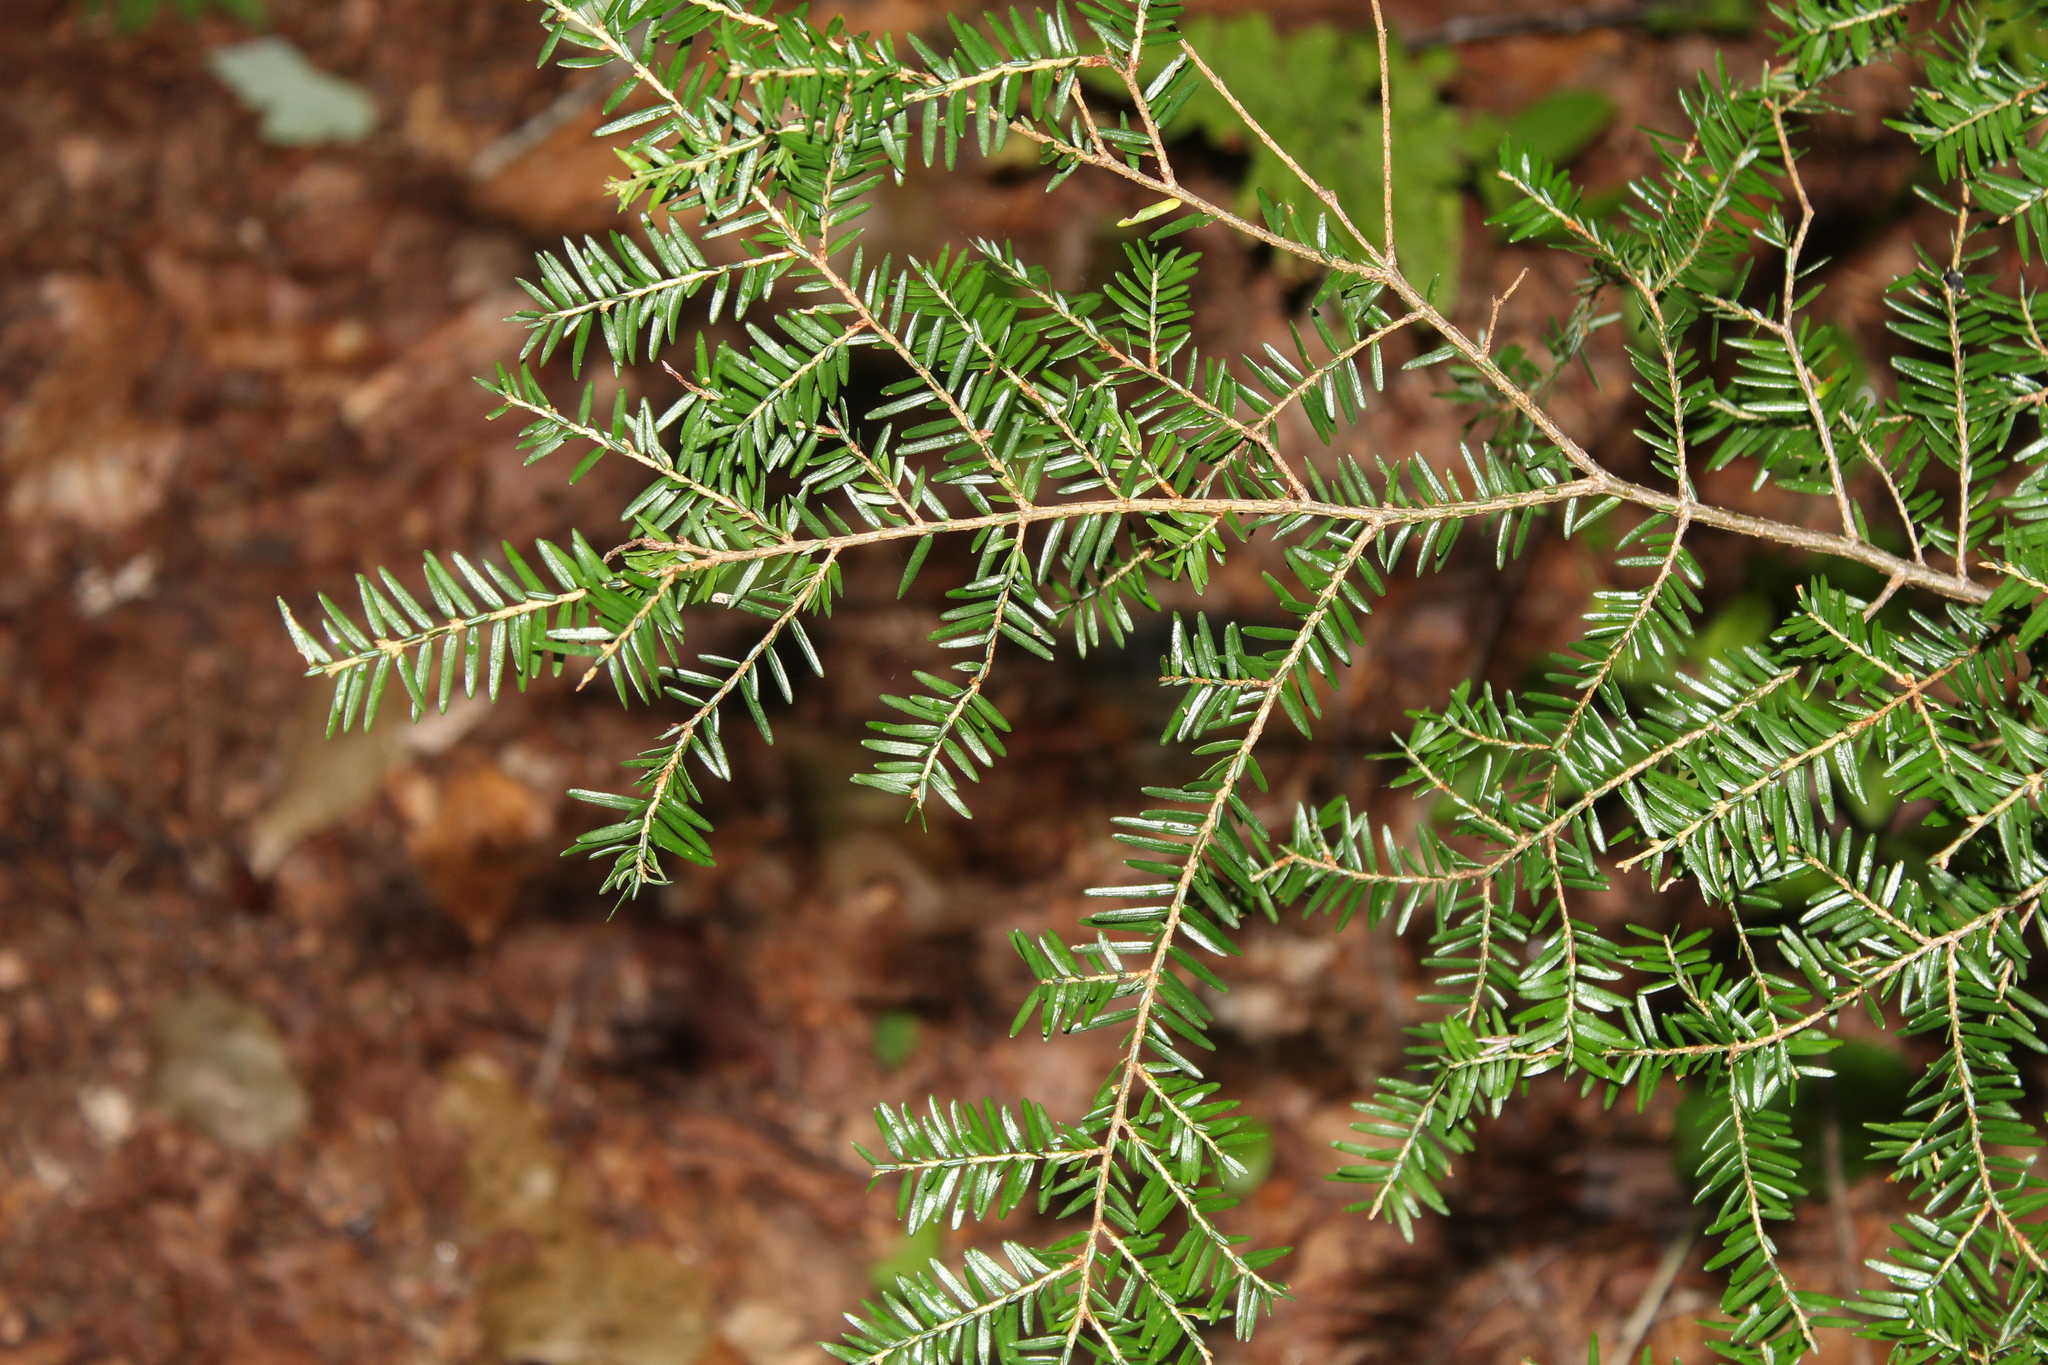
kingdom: Plantae
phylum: Tracheophyta
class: Pinopsida
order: Pinales
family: Pinaceae
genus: Tsuga
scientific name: Tsuga canadensis
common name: Eastern hemlock
